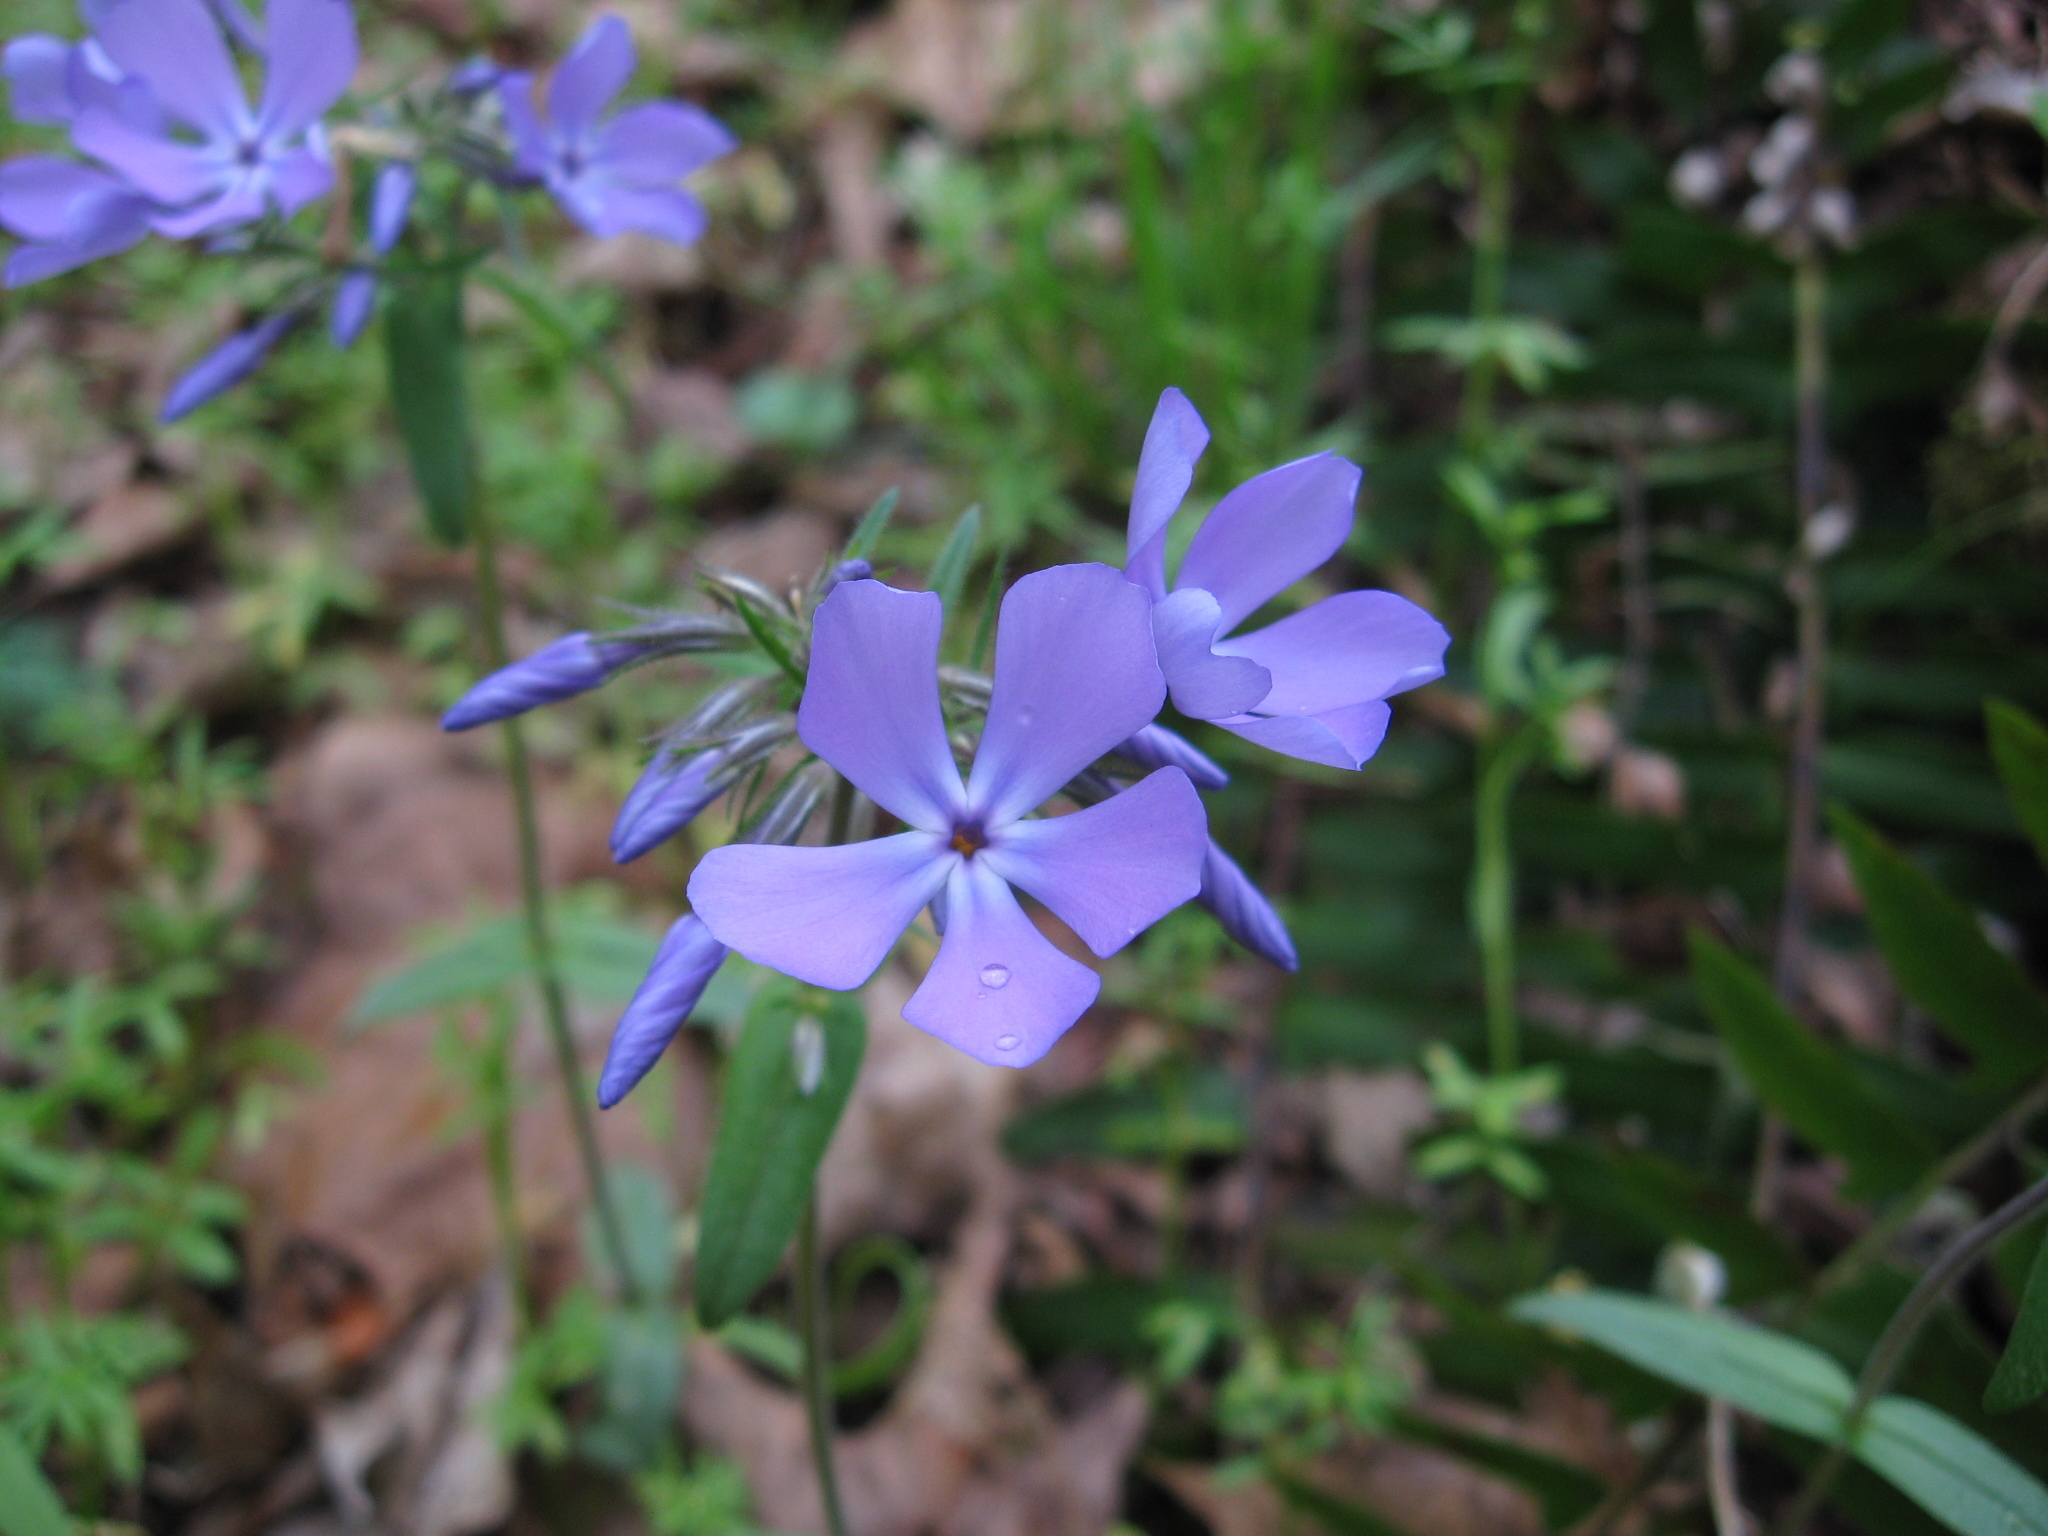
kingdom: Plantae
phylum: Tracheophyta
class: Magnoliopsida
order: Ericales
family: Polemoniaceae
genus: Phlox
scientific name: Phlox divaricata
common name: Blue phlox
